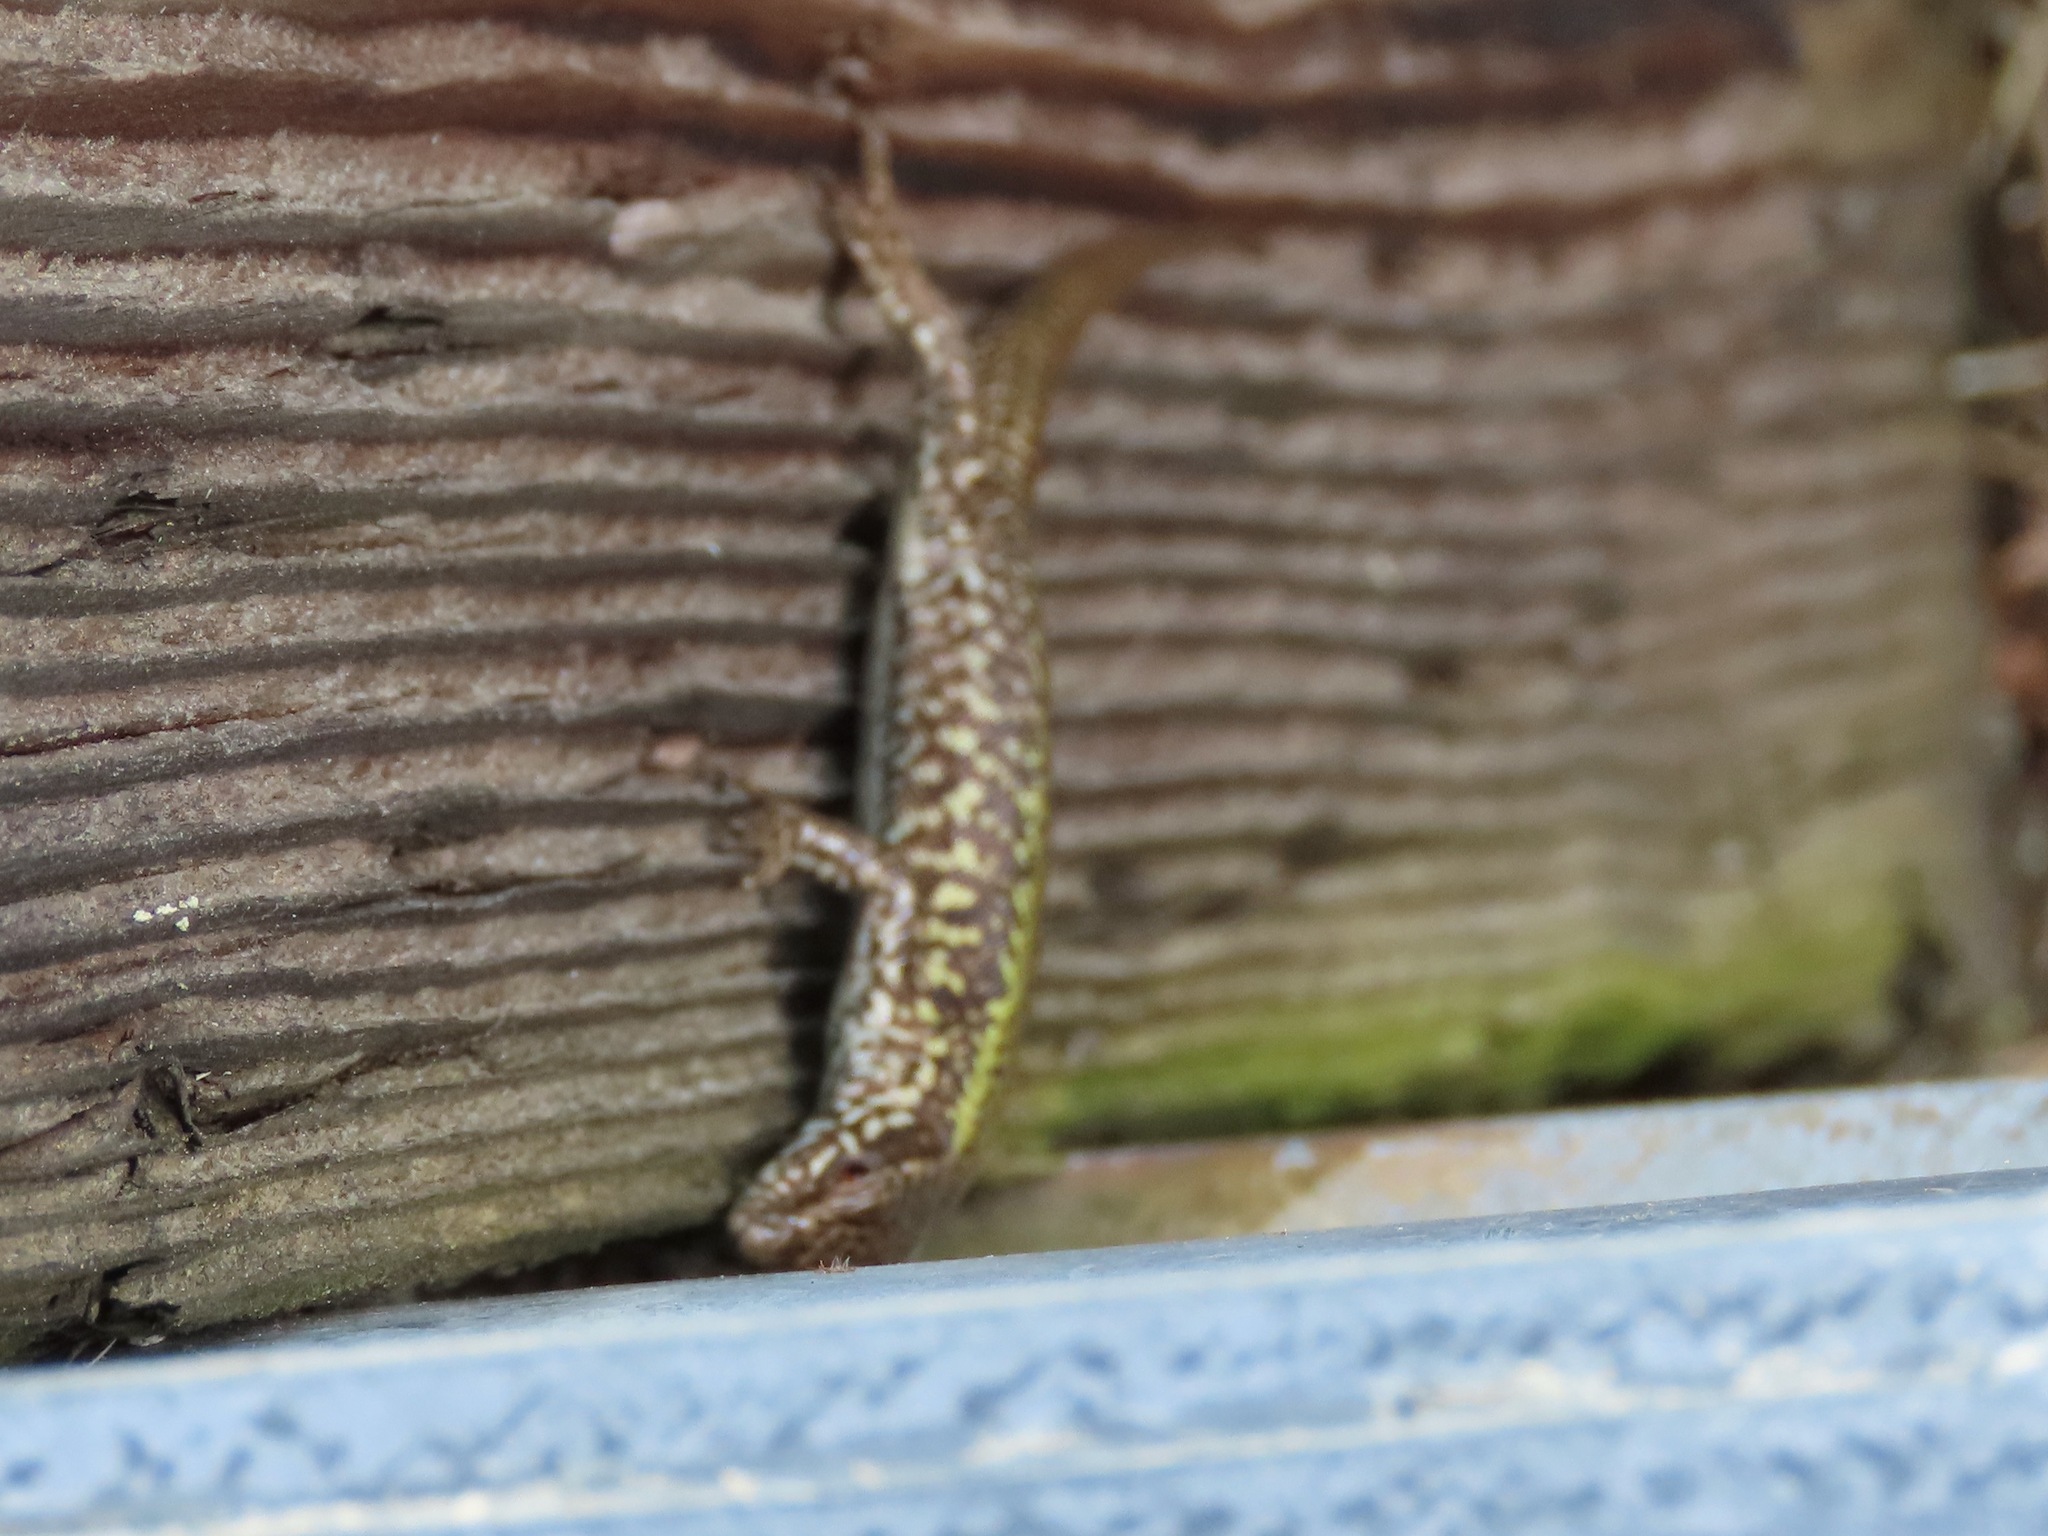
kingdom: Animalia
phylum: Chordata
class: Squamata
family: Lacertidae
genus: Podarcis
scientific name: Podarcis muralis
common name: Common wall lizard
